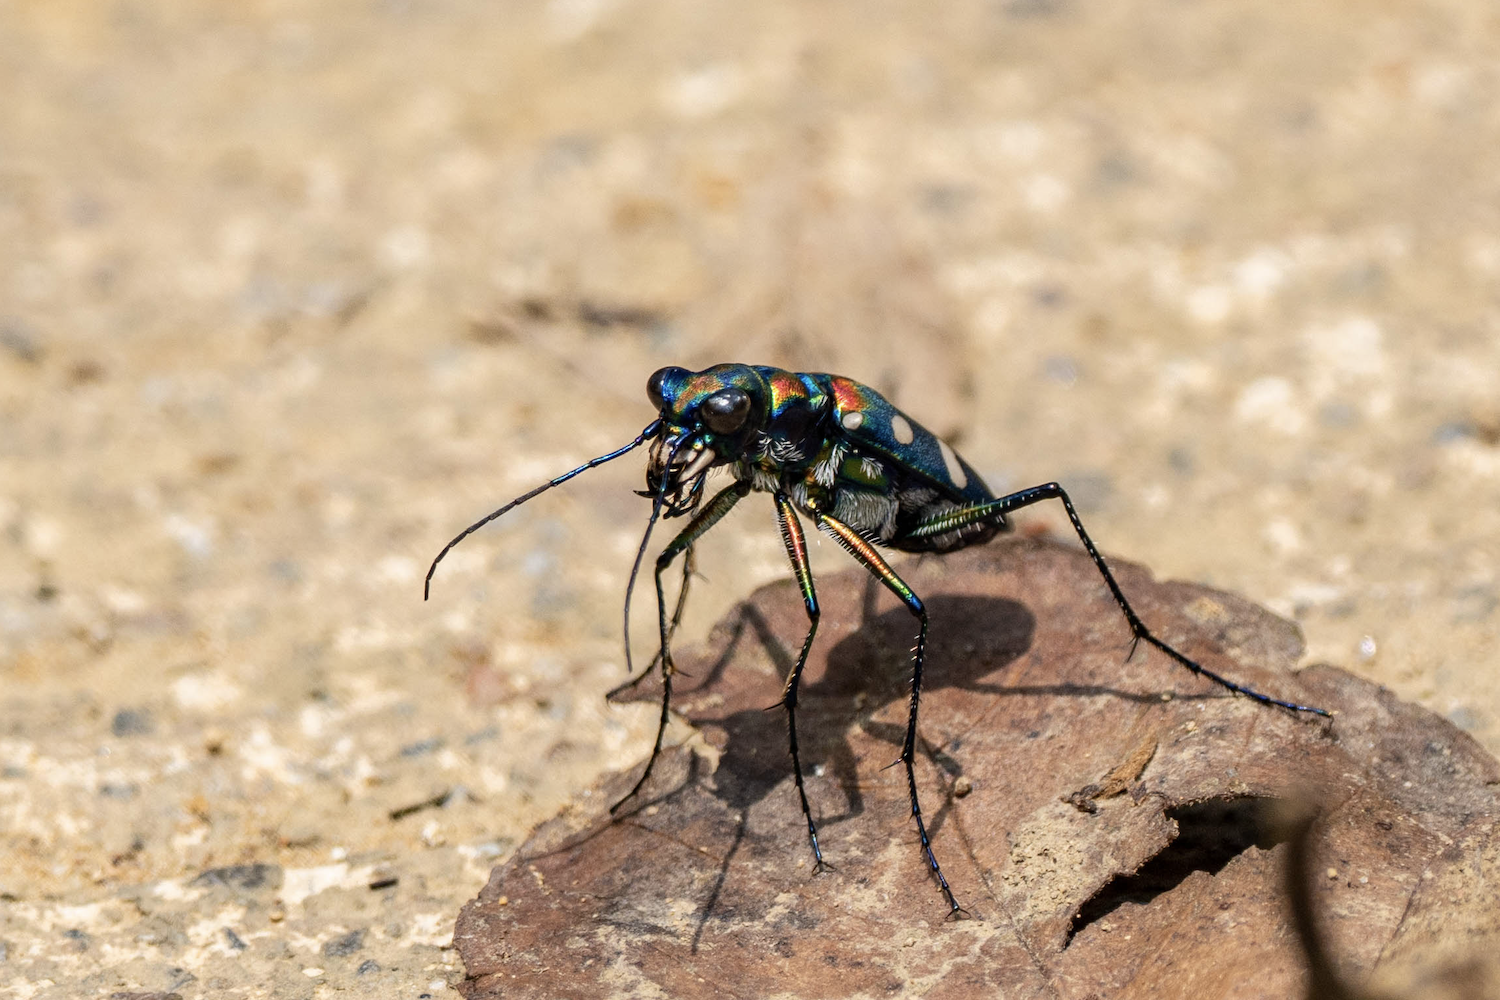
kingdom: Animalia
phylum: Arthropoda
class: Insecta
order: Coleoptera
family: Carabidae
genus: Cicindela
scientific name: Cicindela aurulenta
